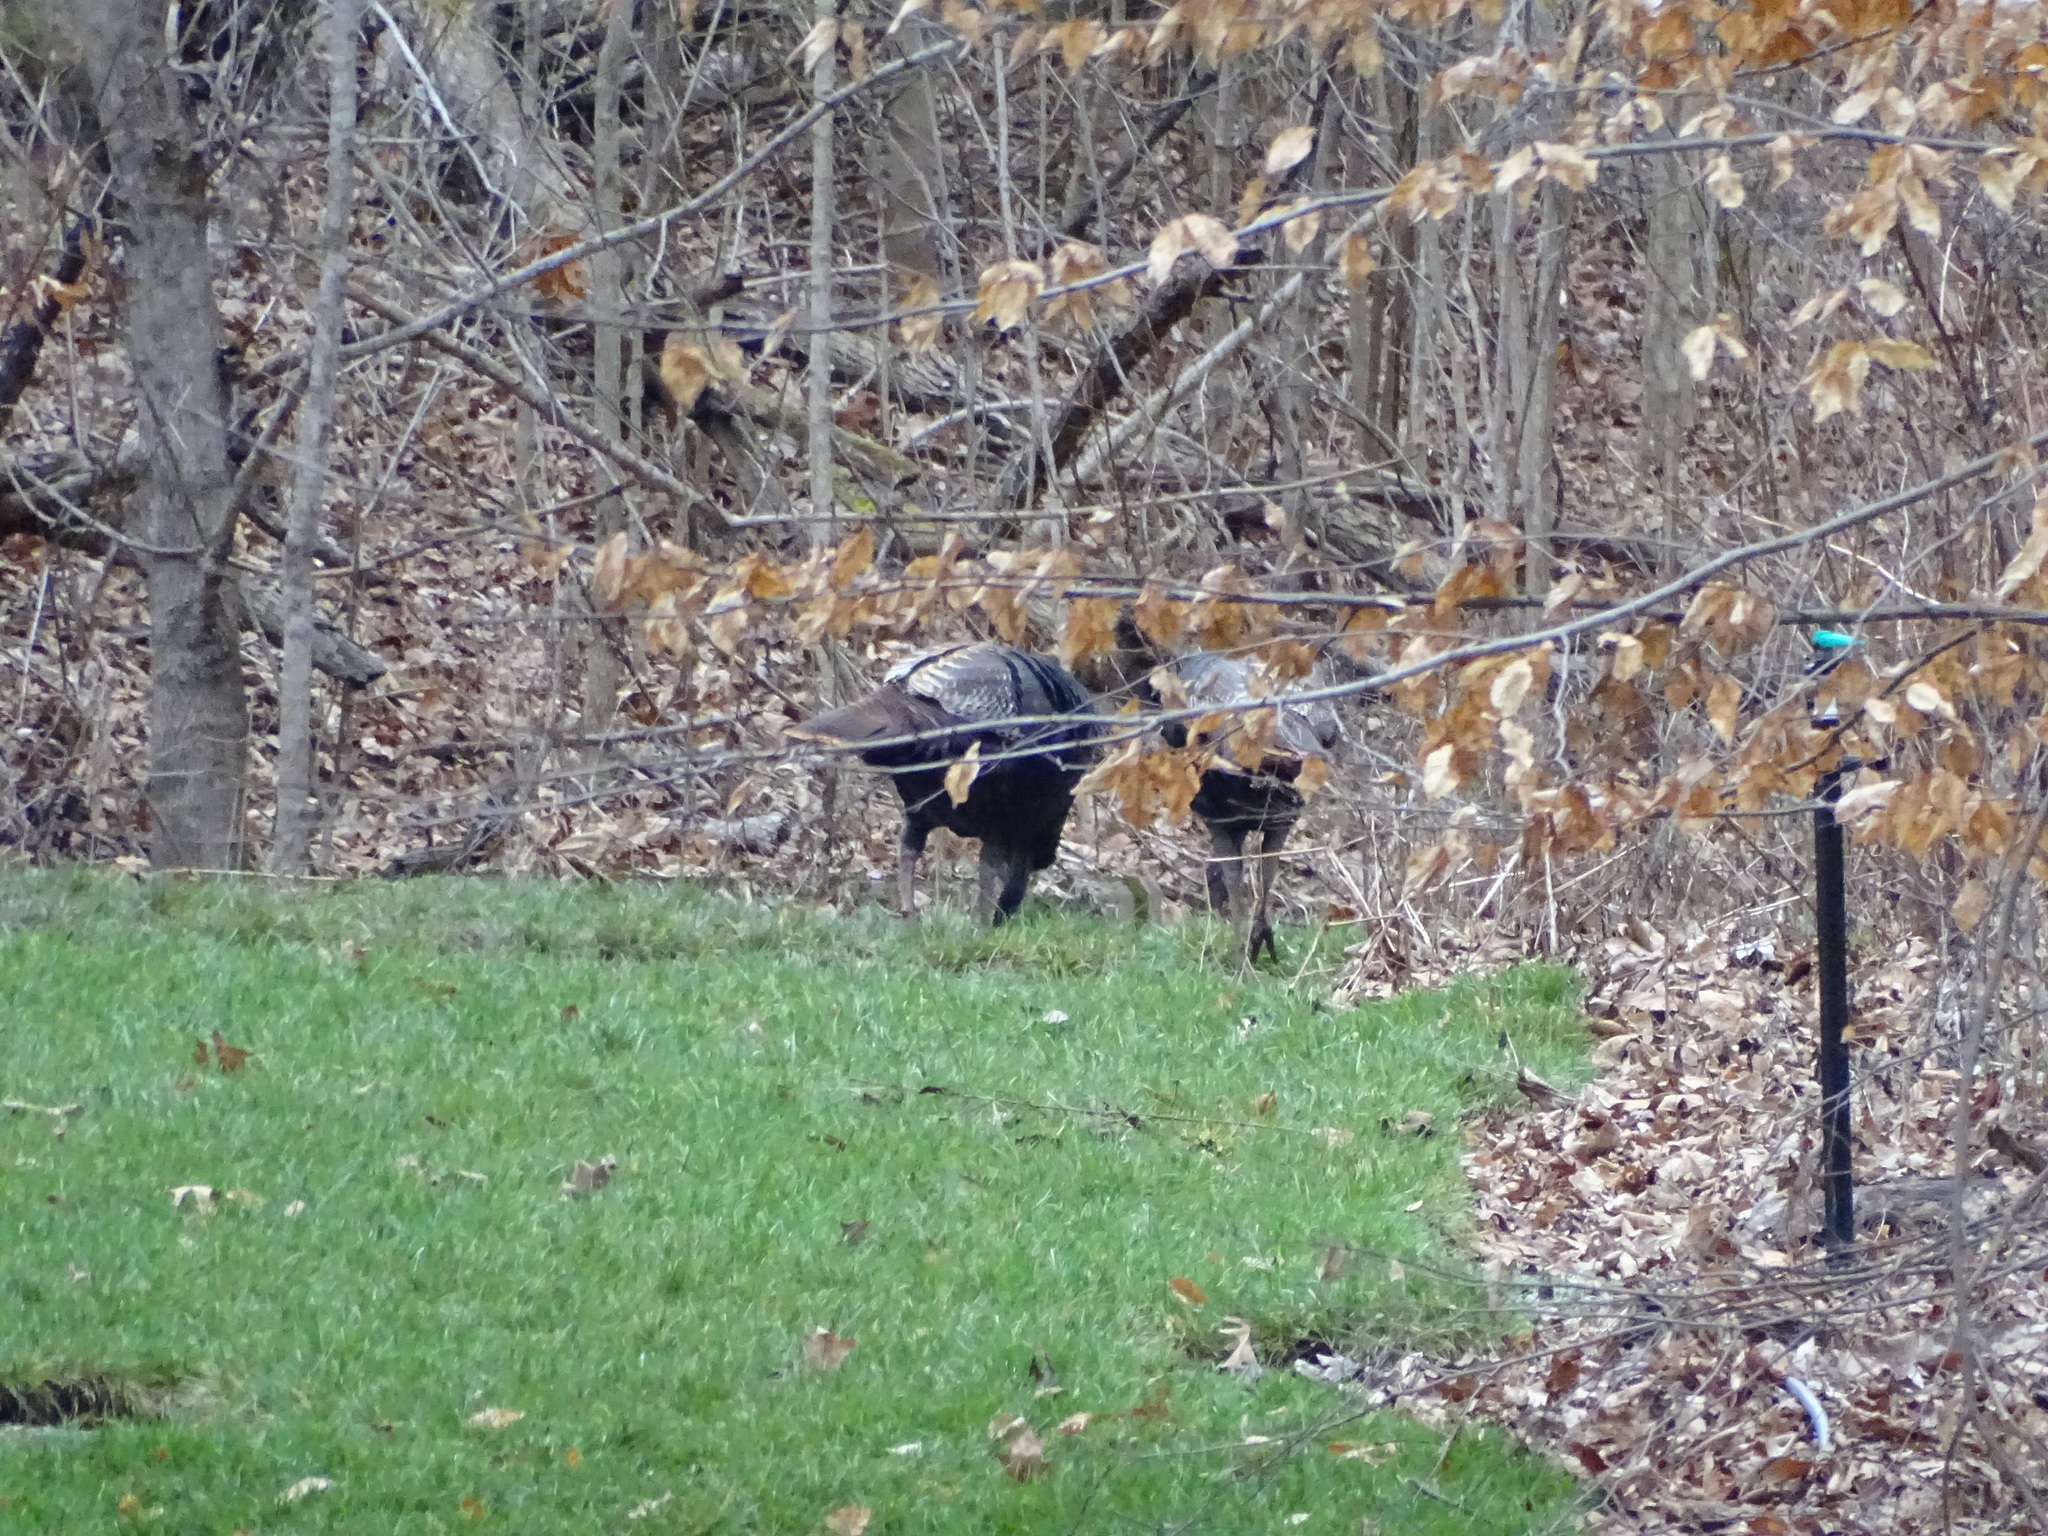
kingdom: Animalia
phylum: Chordata
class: Aves
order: Galliformes
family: Phasianidae
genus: Meleagris
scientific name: Meleagris gallopavo
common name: Wild turkey
